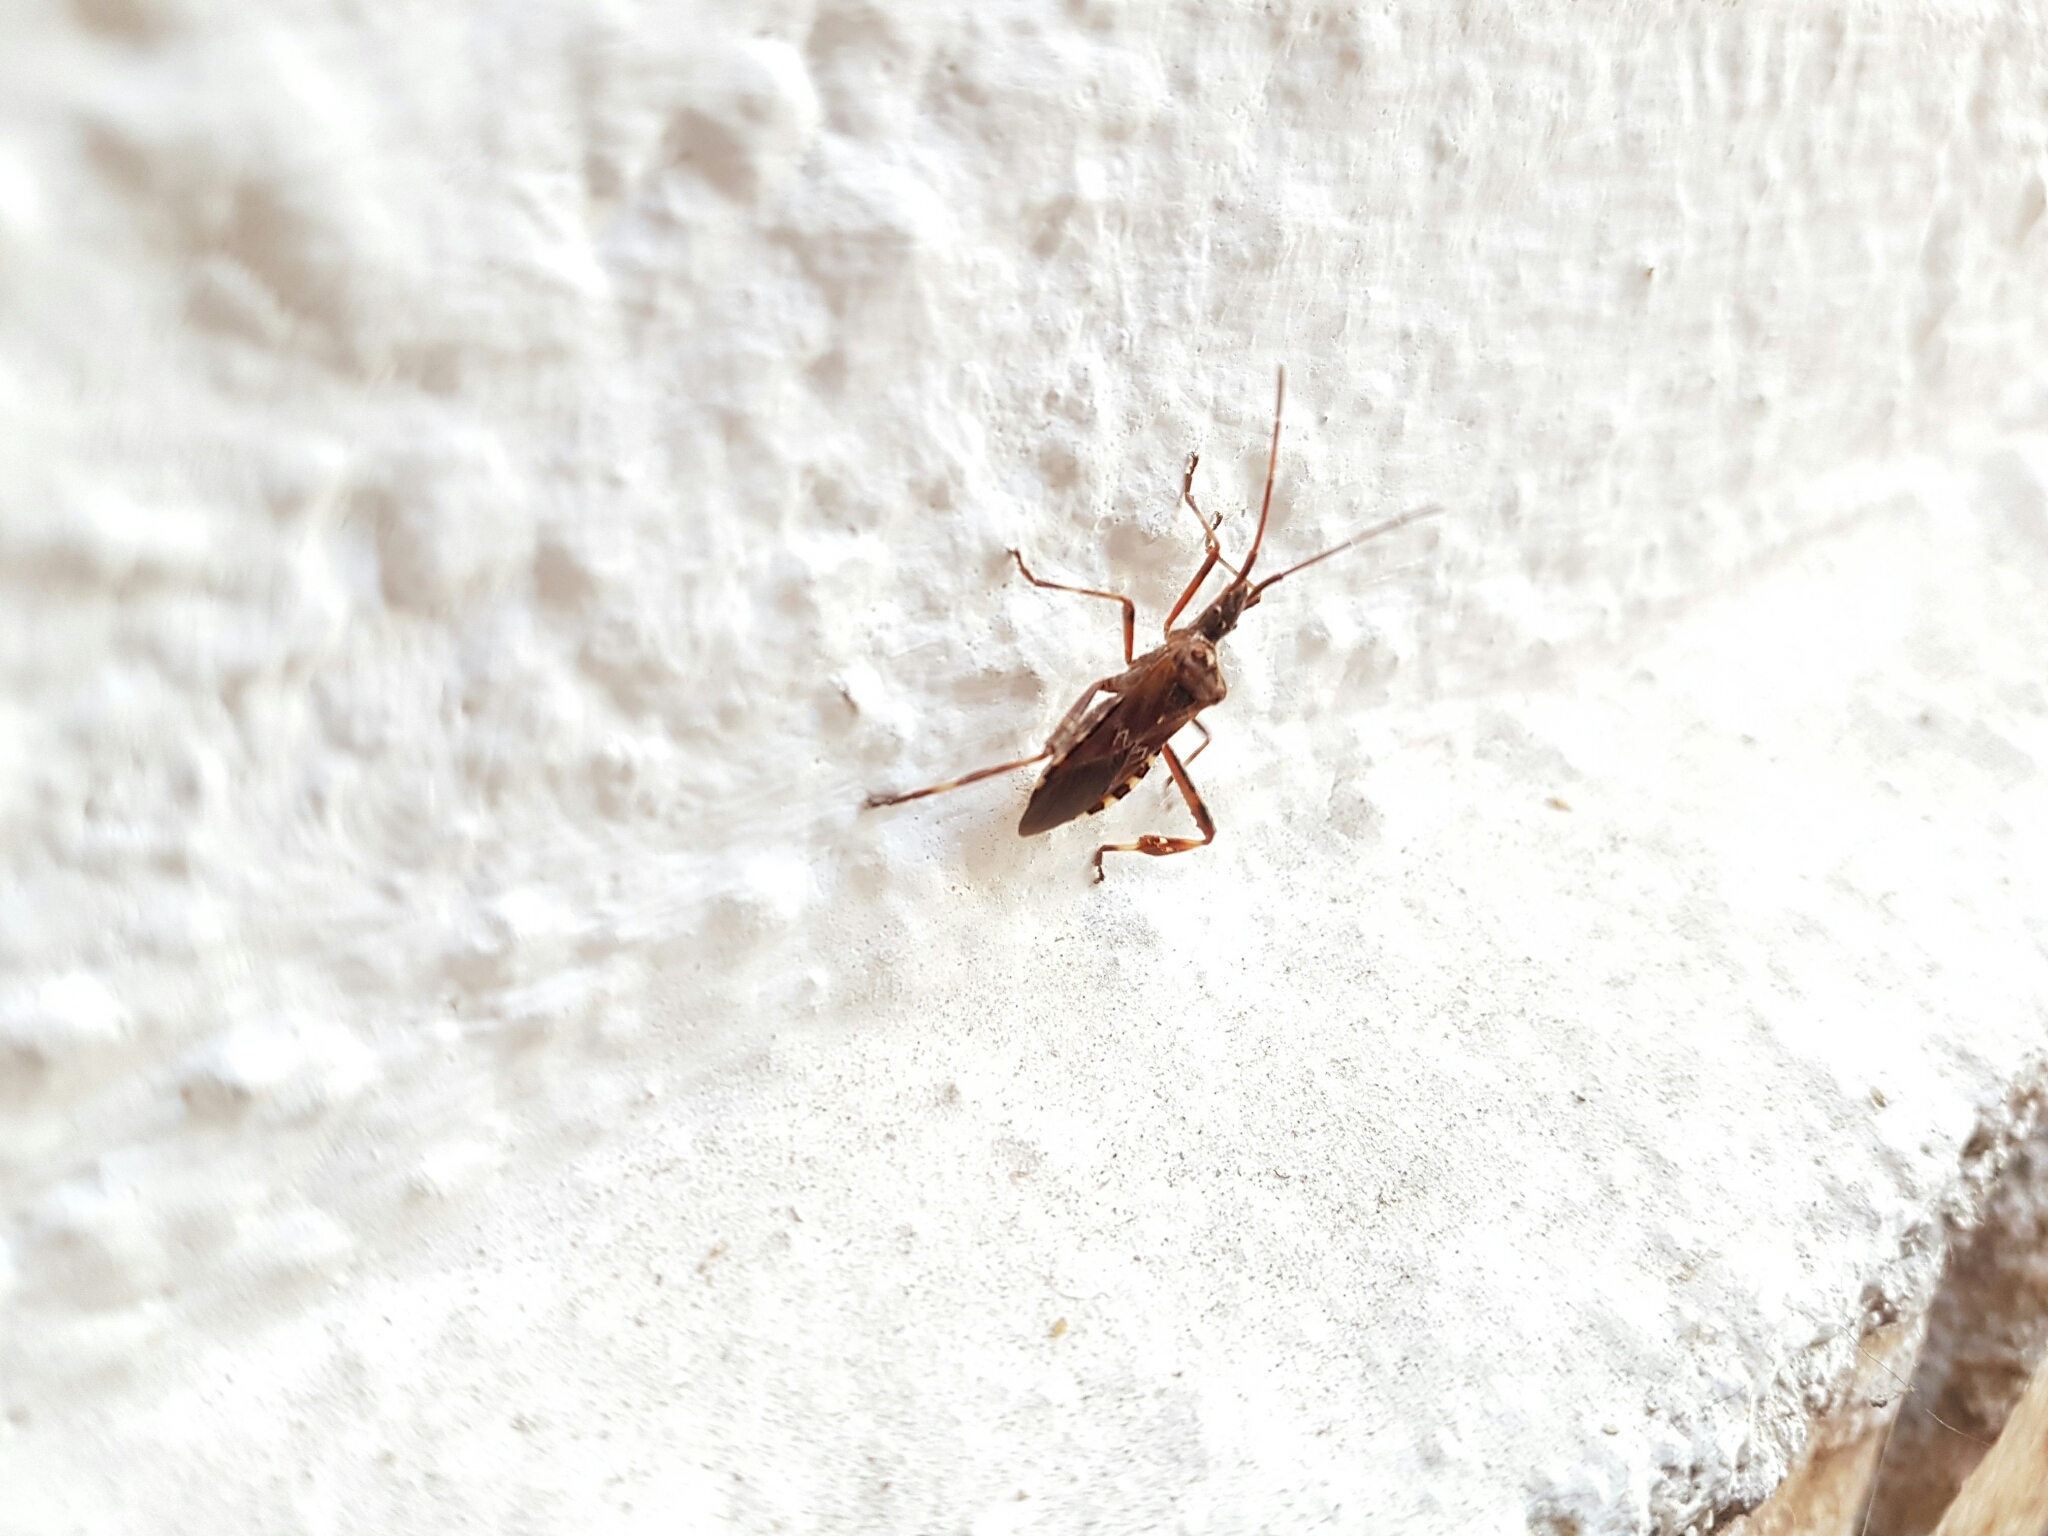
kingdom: Animalia
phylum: Arthropoda
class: Insecta
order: Hemiptera
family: Coreidae
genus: Leptoglossus
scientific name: Leptoglossus occidentalis
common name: Western conifer-seed bug
